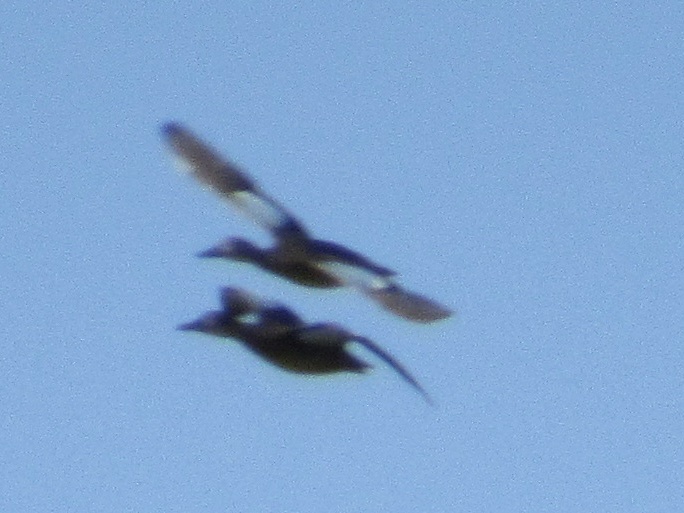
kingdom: Animalia
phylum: Chordata
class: Aves
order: Anseriformes
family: Anatidae
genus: Spatula
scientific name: Spatula discors
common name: Blue-winged teal
